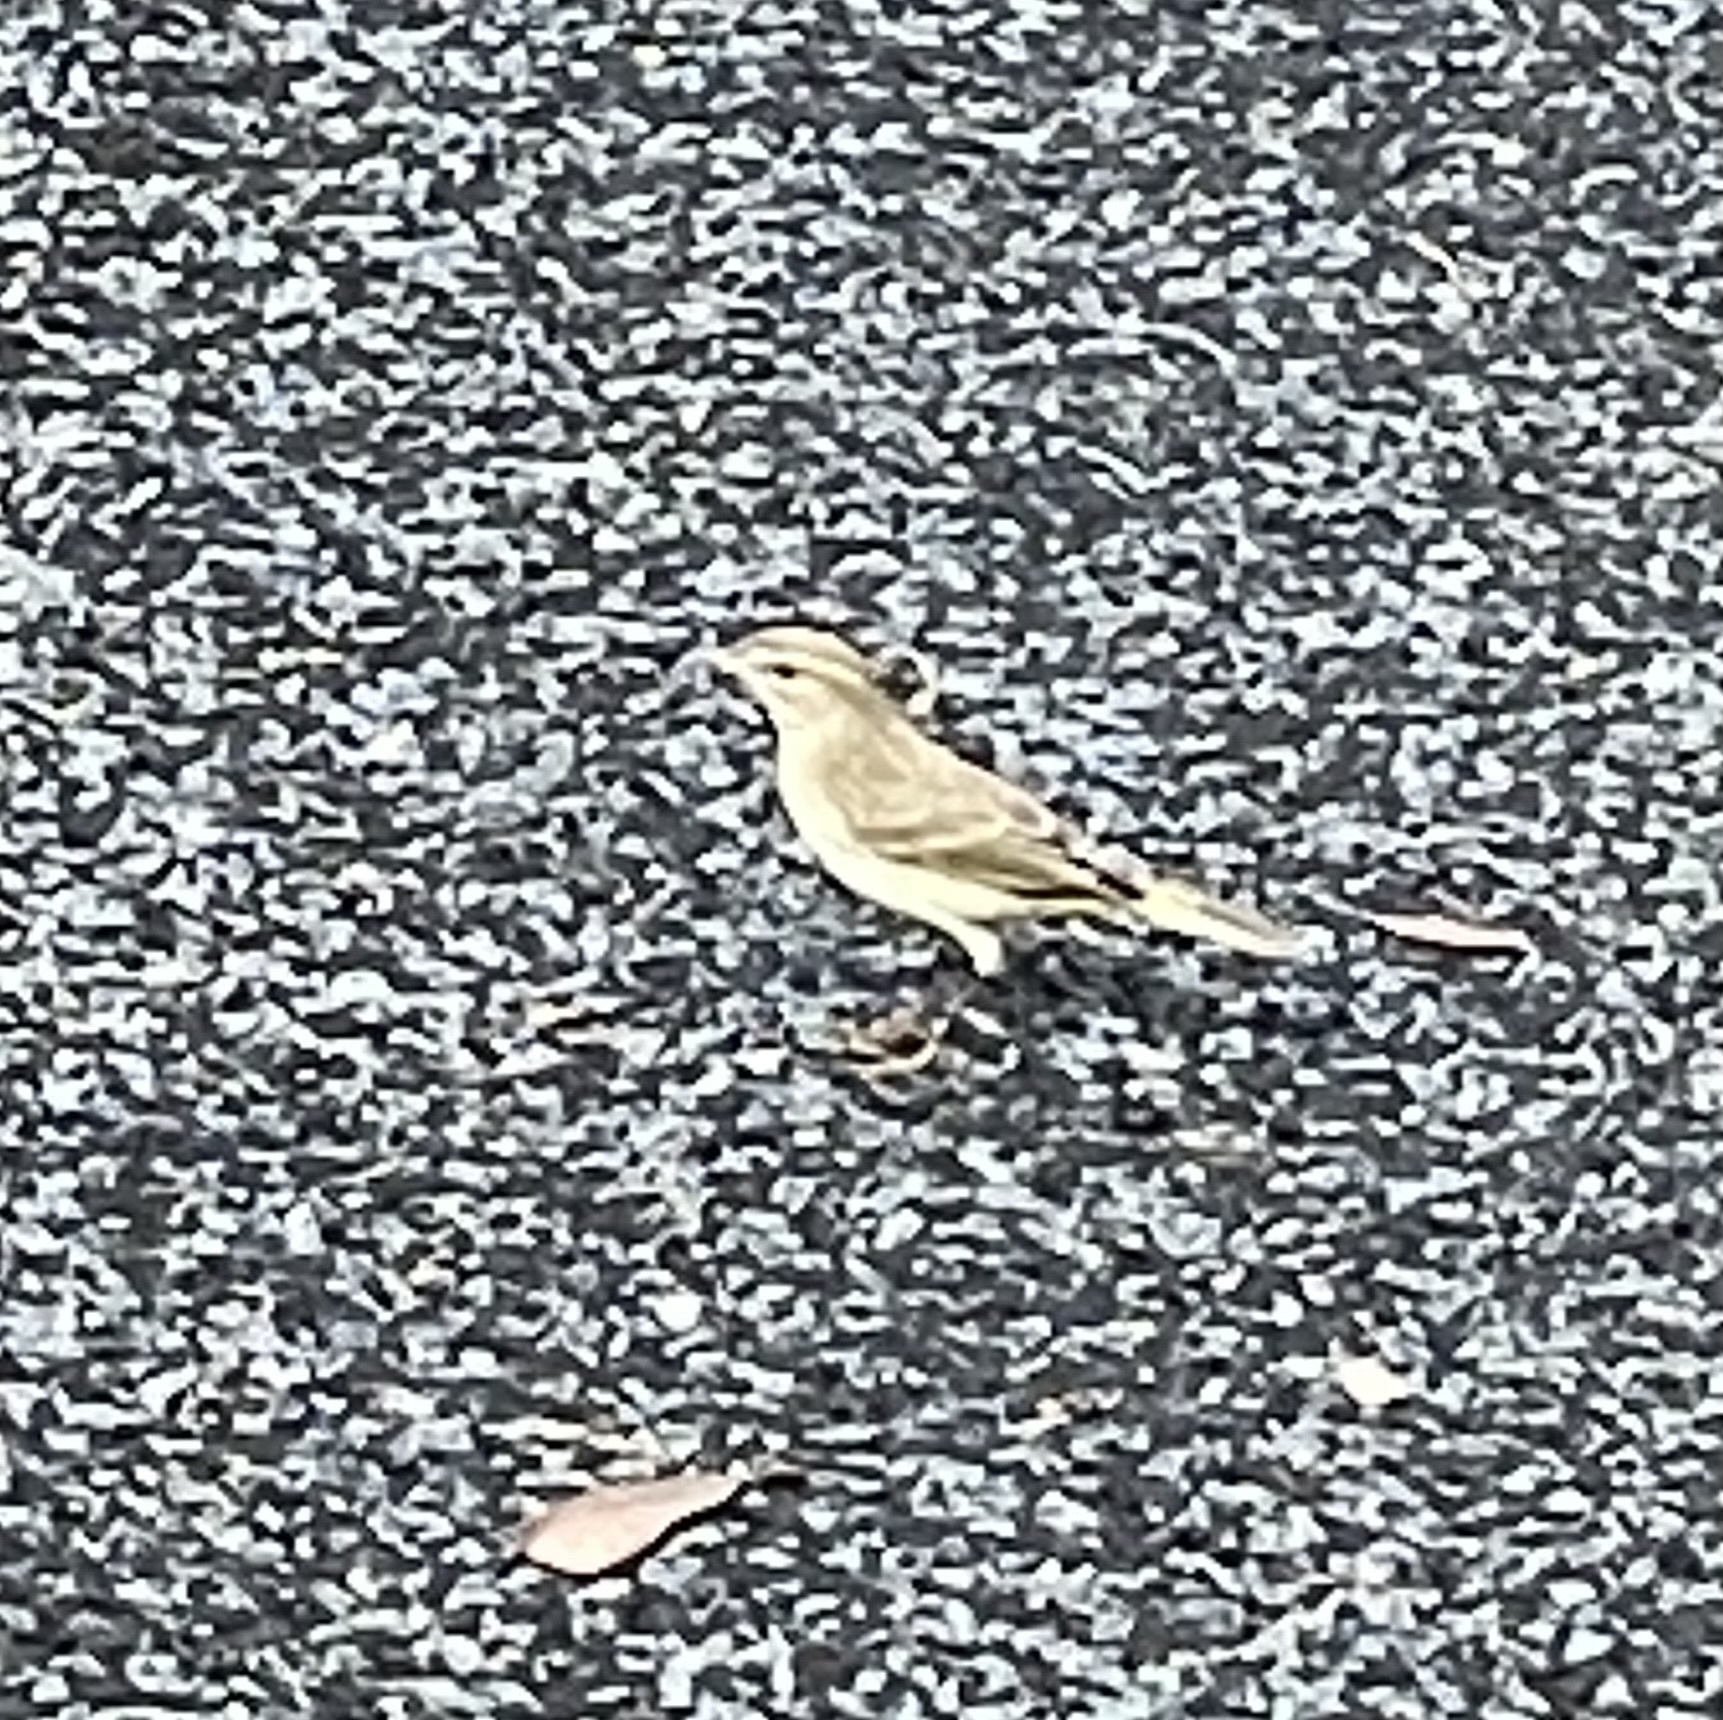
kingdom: Animalia
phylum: Chordata
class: Aves
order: Passeriformes
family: Parulidae
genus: Setophaga
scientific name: Setophaga palmarum
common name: Palm warbler
